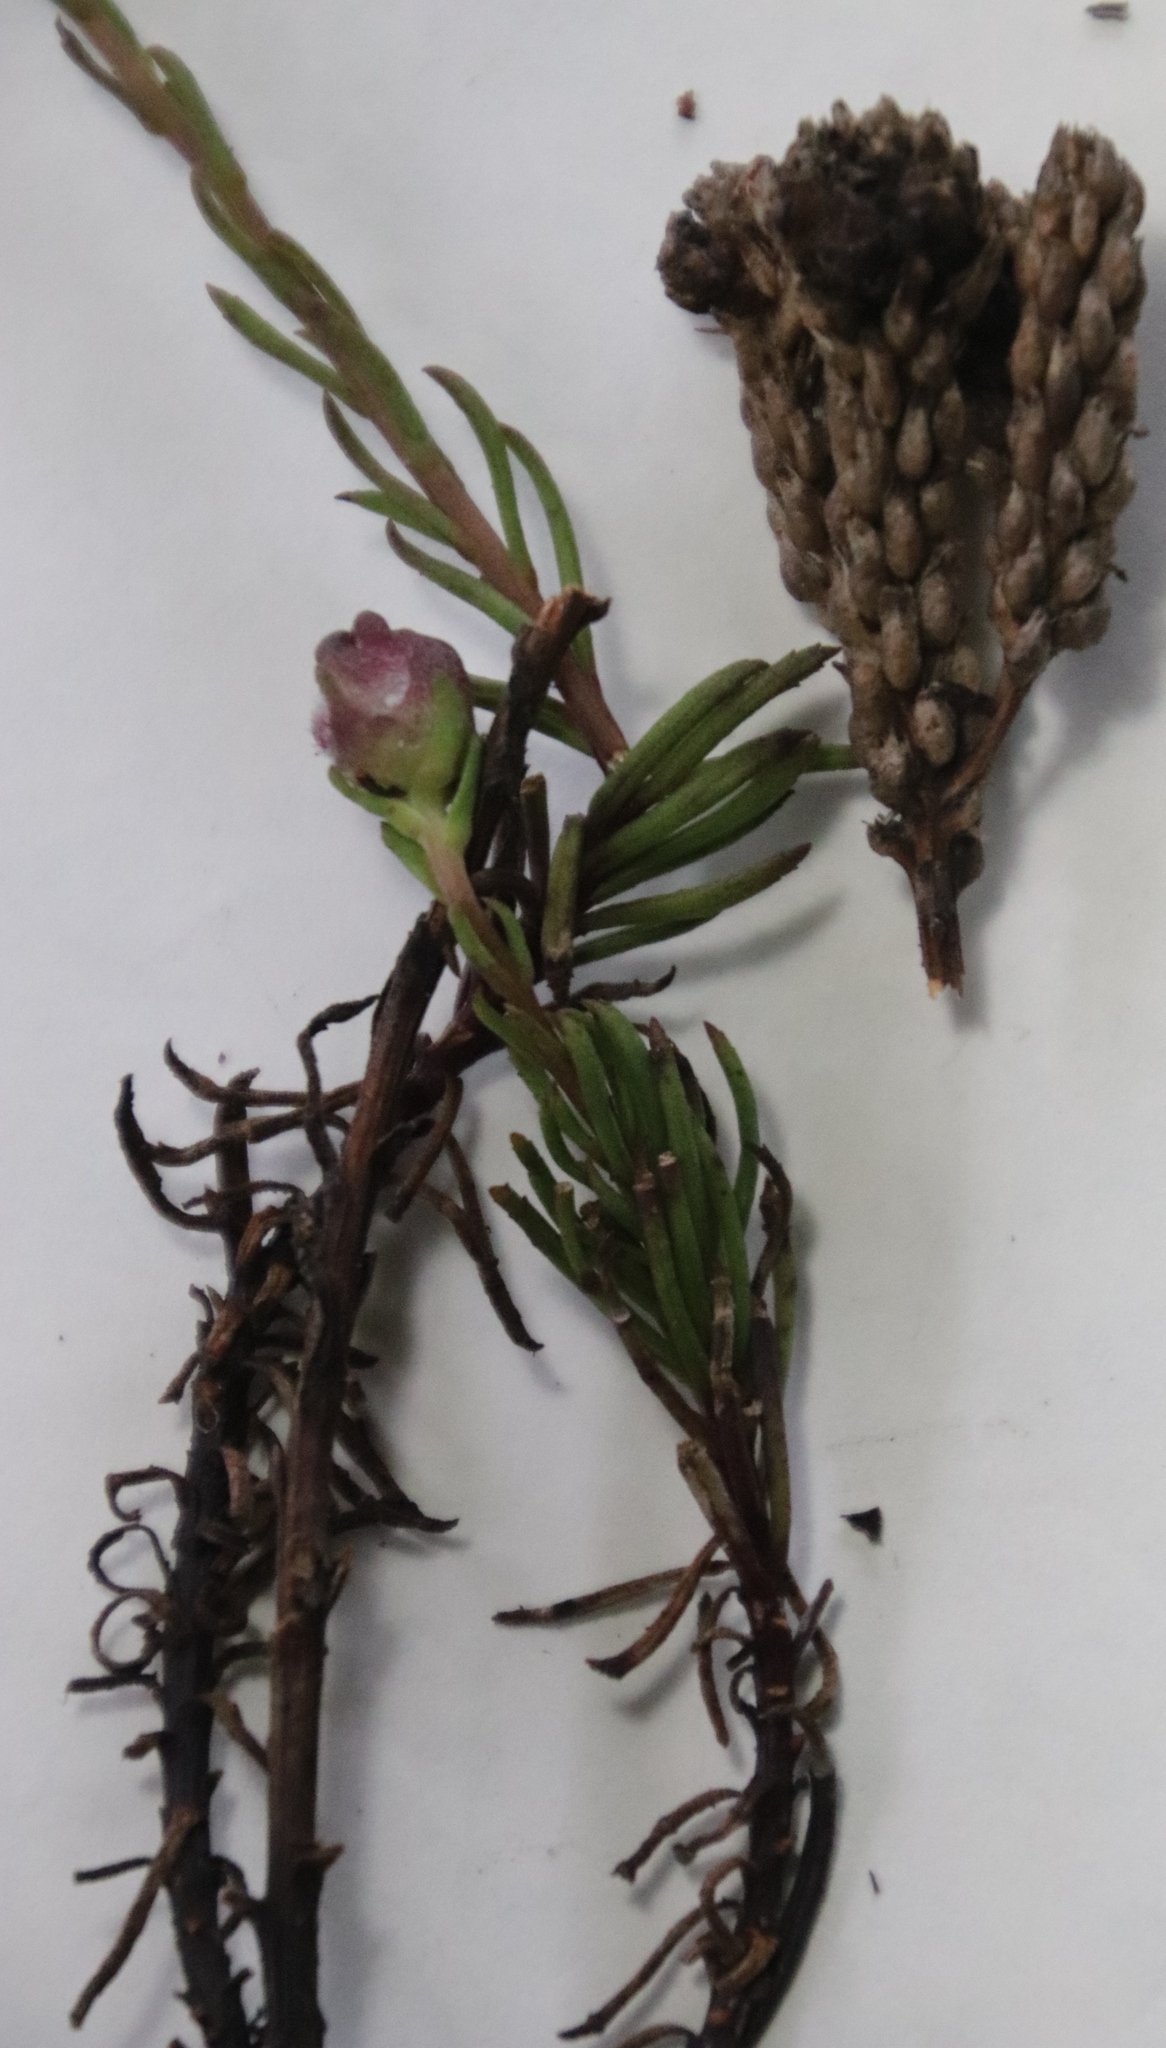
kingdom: Plantae
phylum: Tracheophyta
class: Magnoliopsida
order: Lamiales
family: Scrophulariaceae
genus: Pseudoselago
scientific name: Pseudoselago spuria
